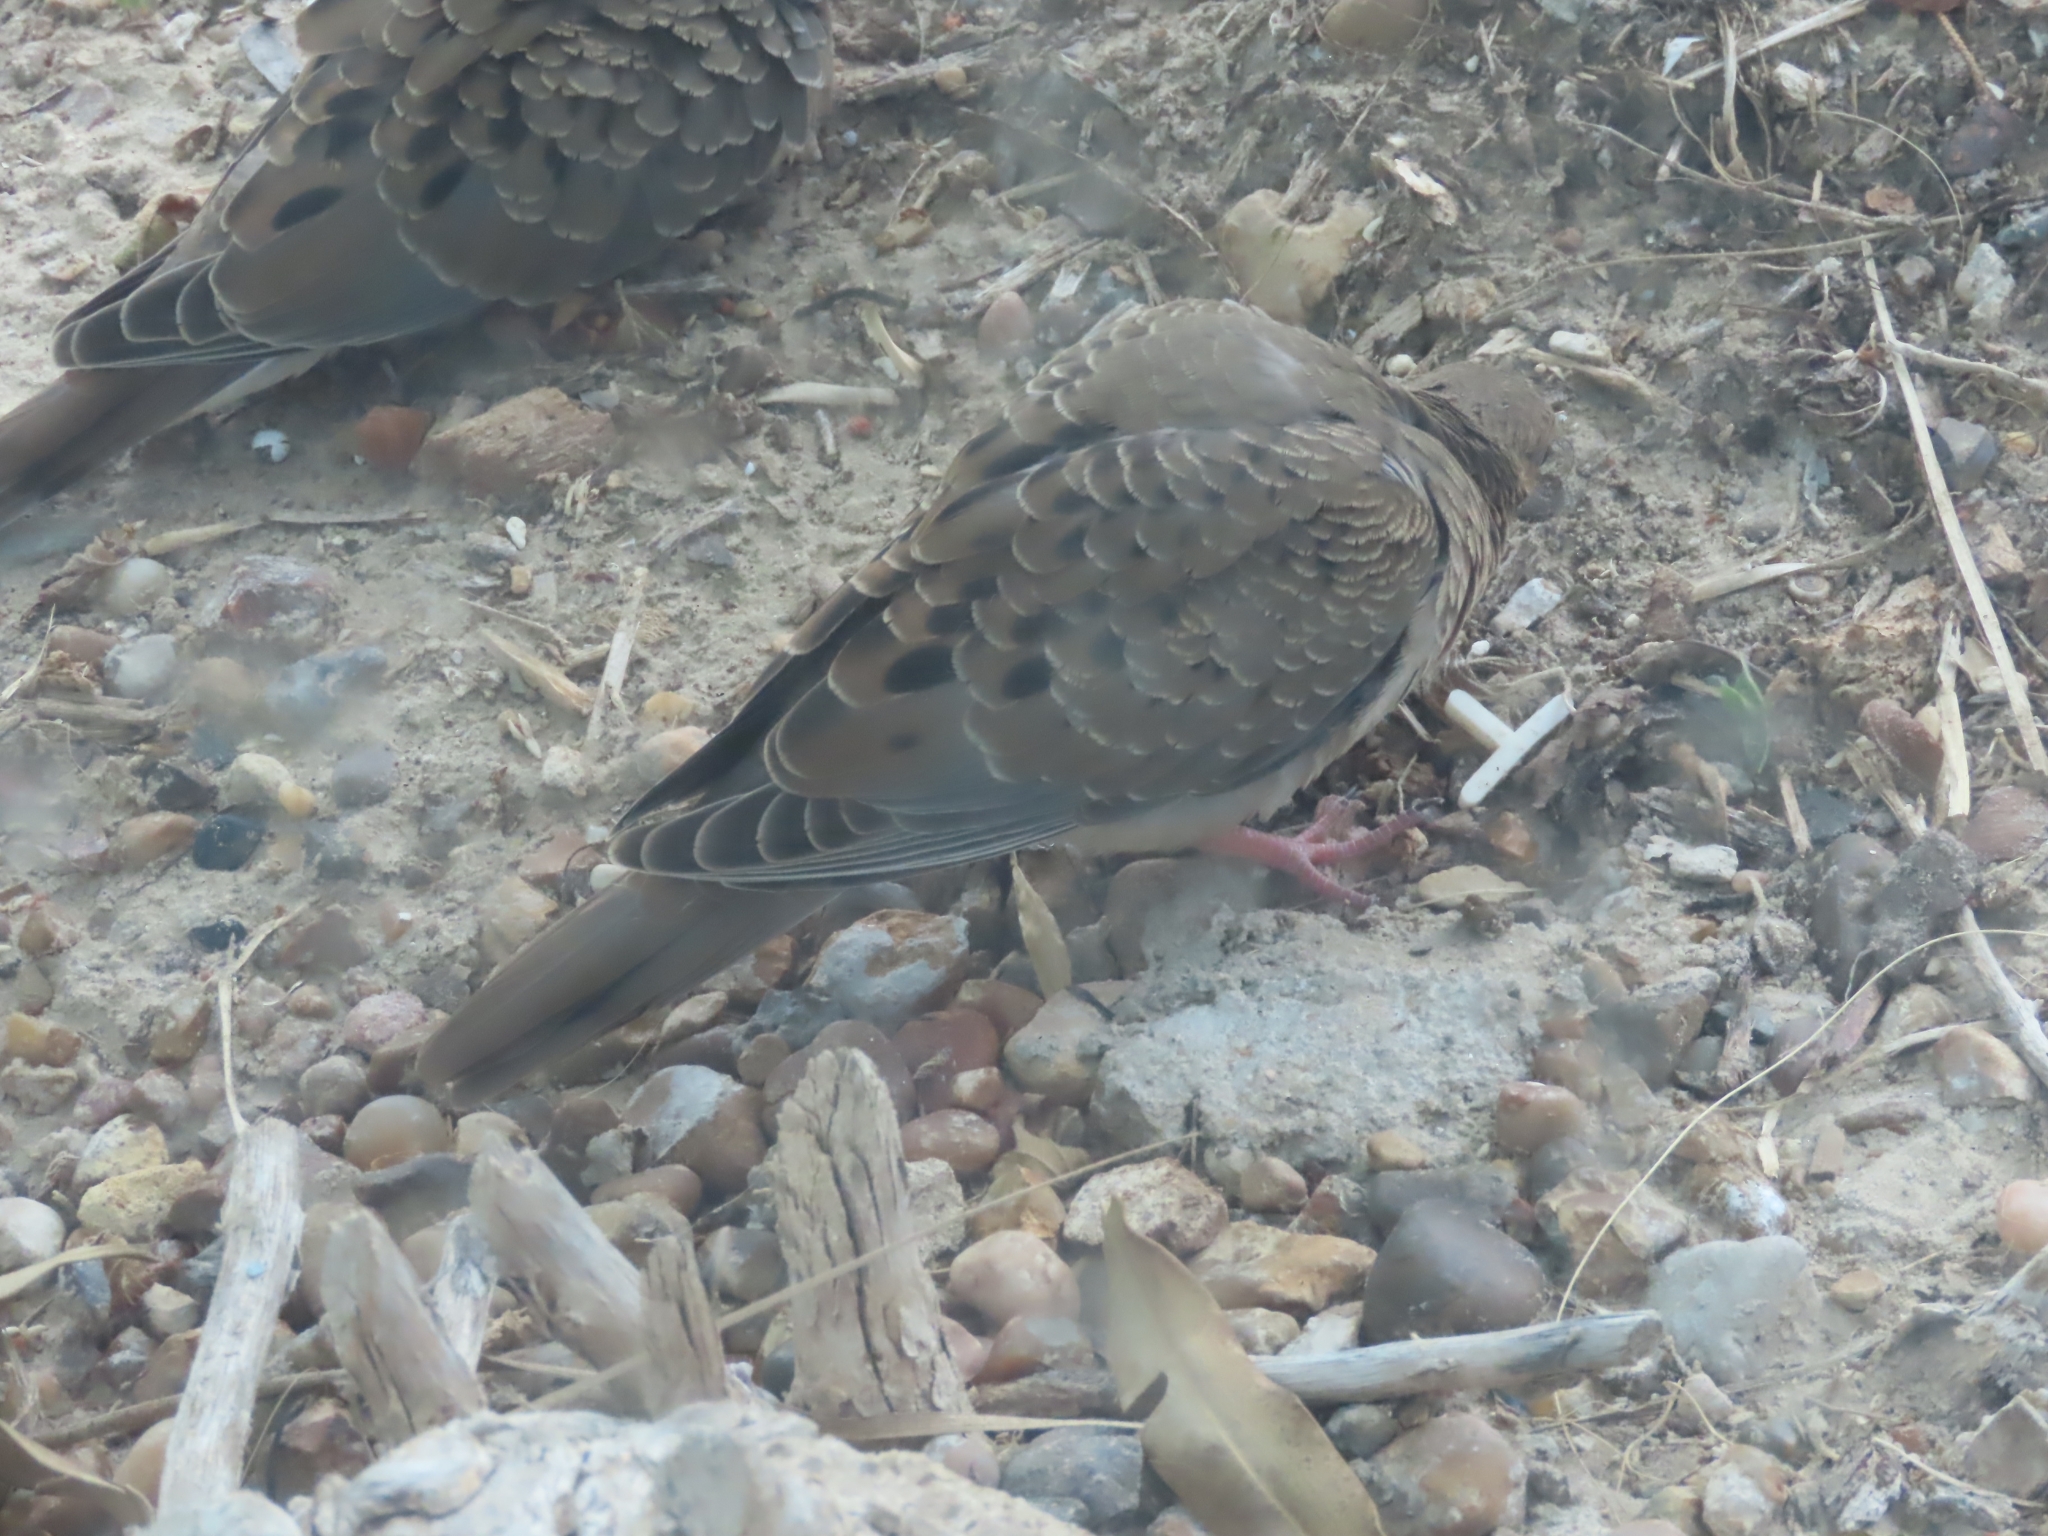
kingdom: Animalia
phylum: Chordata
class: Aves
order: Columbiformes
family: Columbidae
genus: Zenaida
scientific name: Zenaida macroura
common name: Mourning dove
